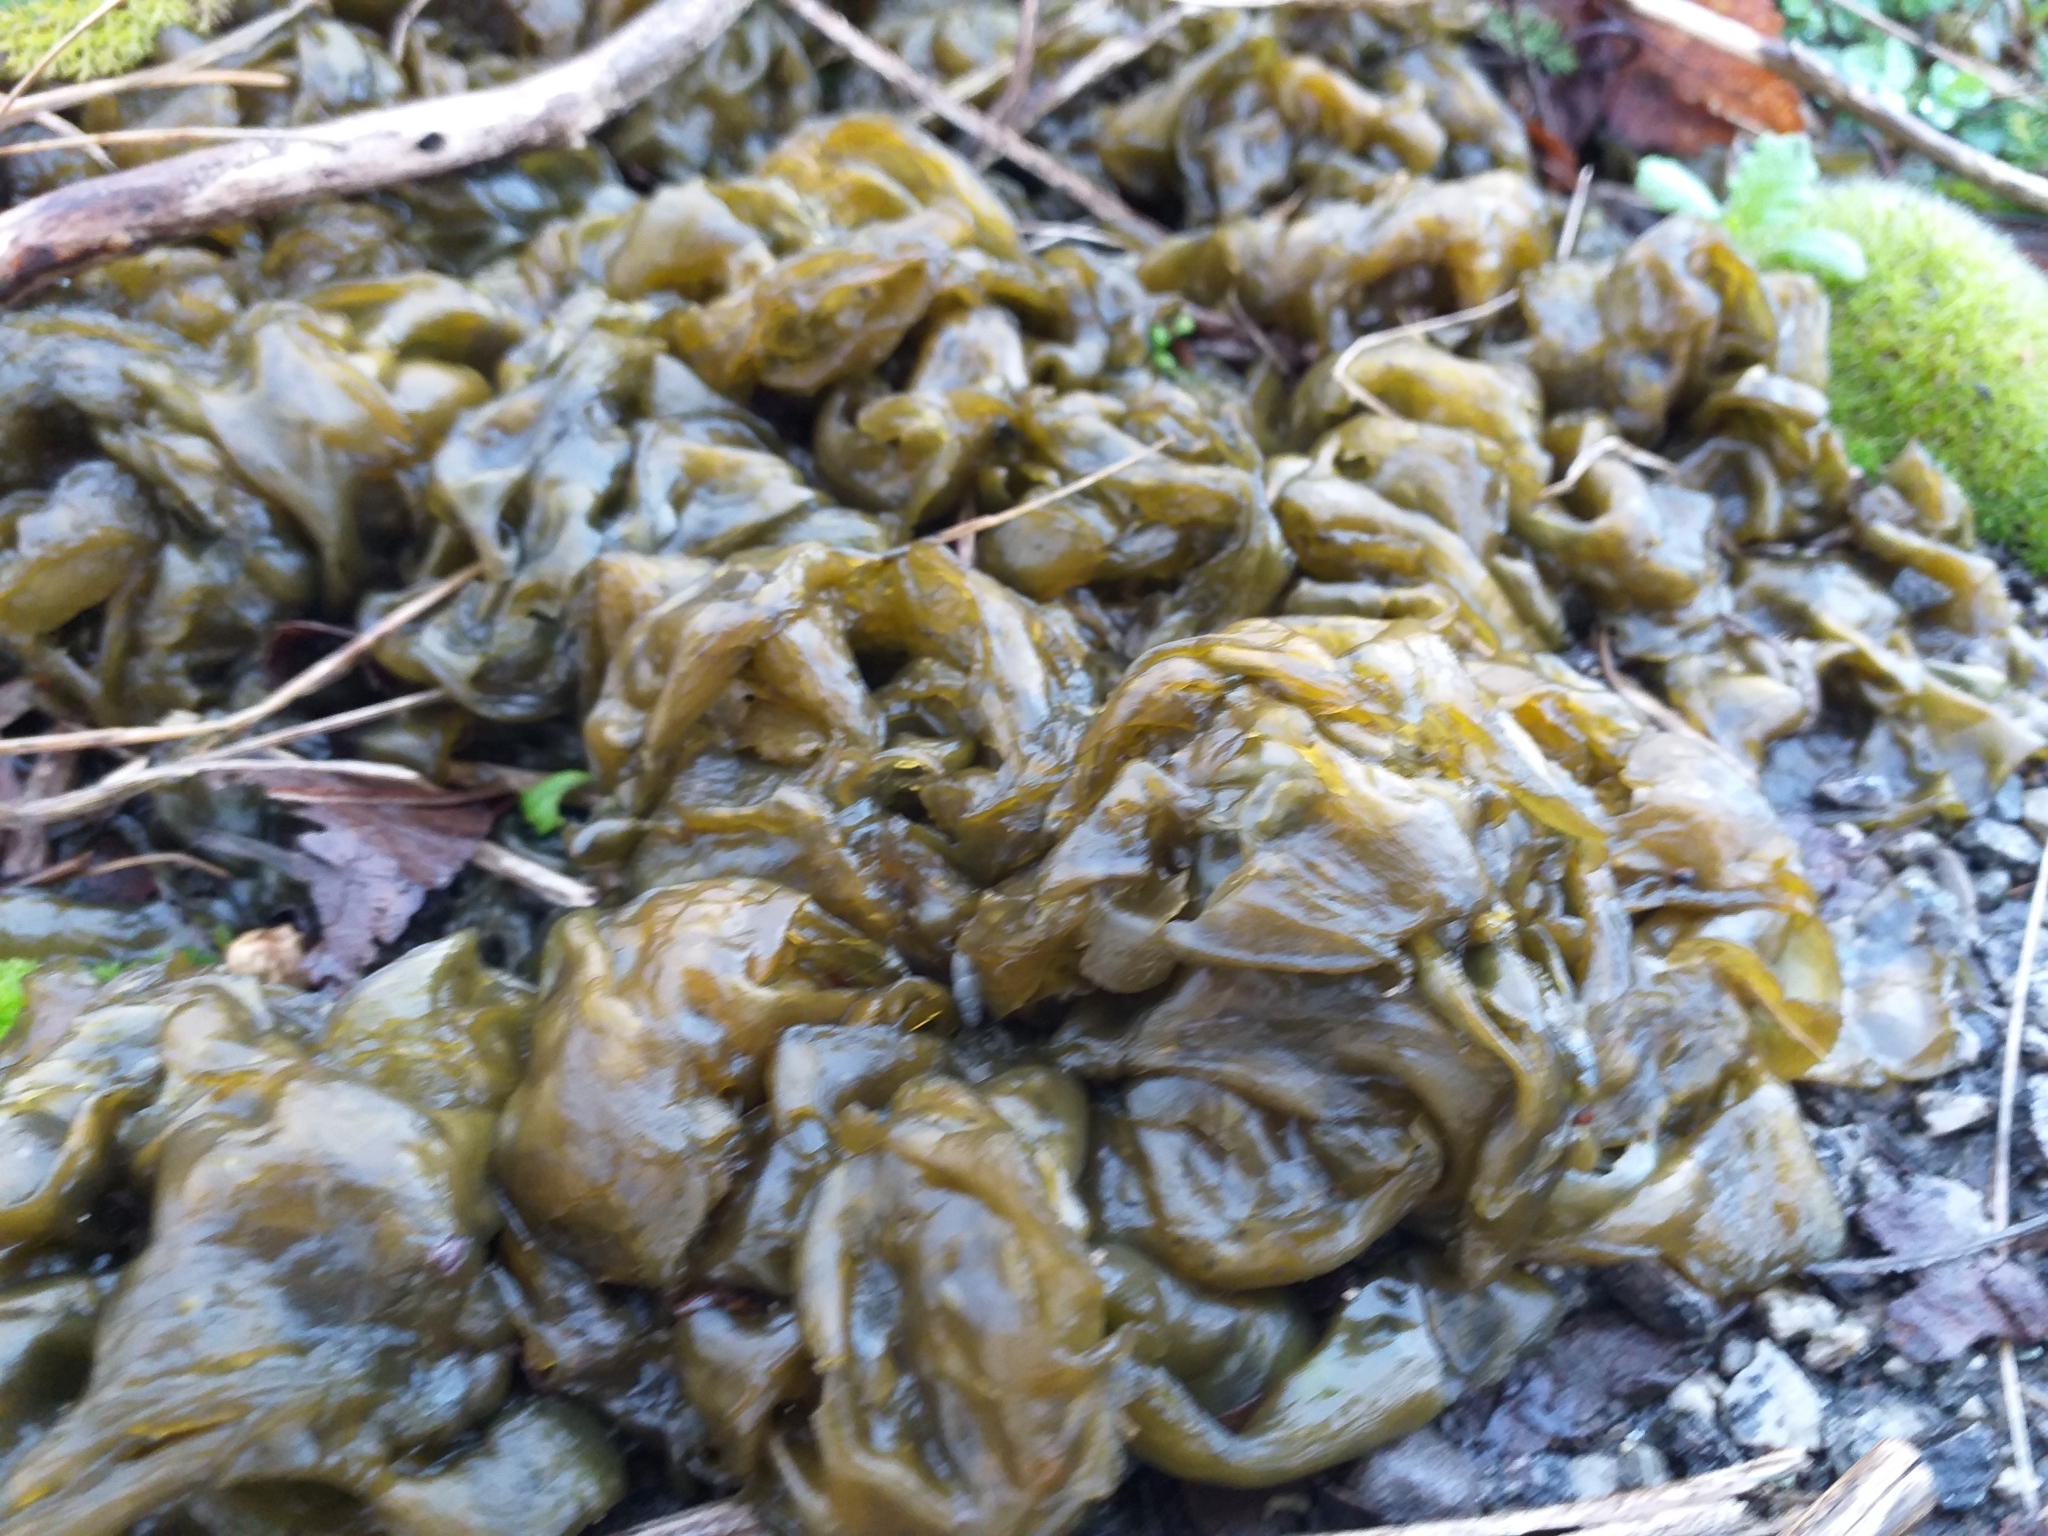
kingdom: Bacteria
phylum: Cyanobacteria
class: Cyanobacteriia
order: Cyanobacteriales
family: Nostocaceae
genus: Nostoc
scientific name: Nostoc commune
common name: Star jelly
